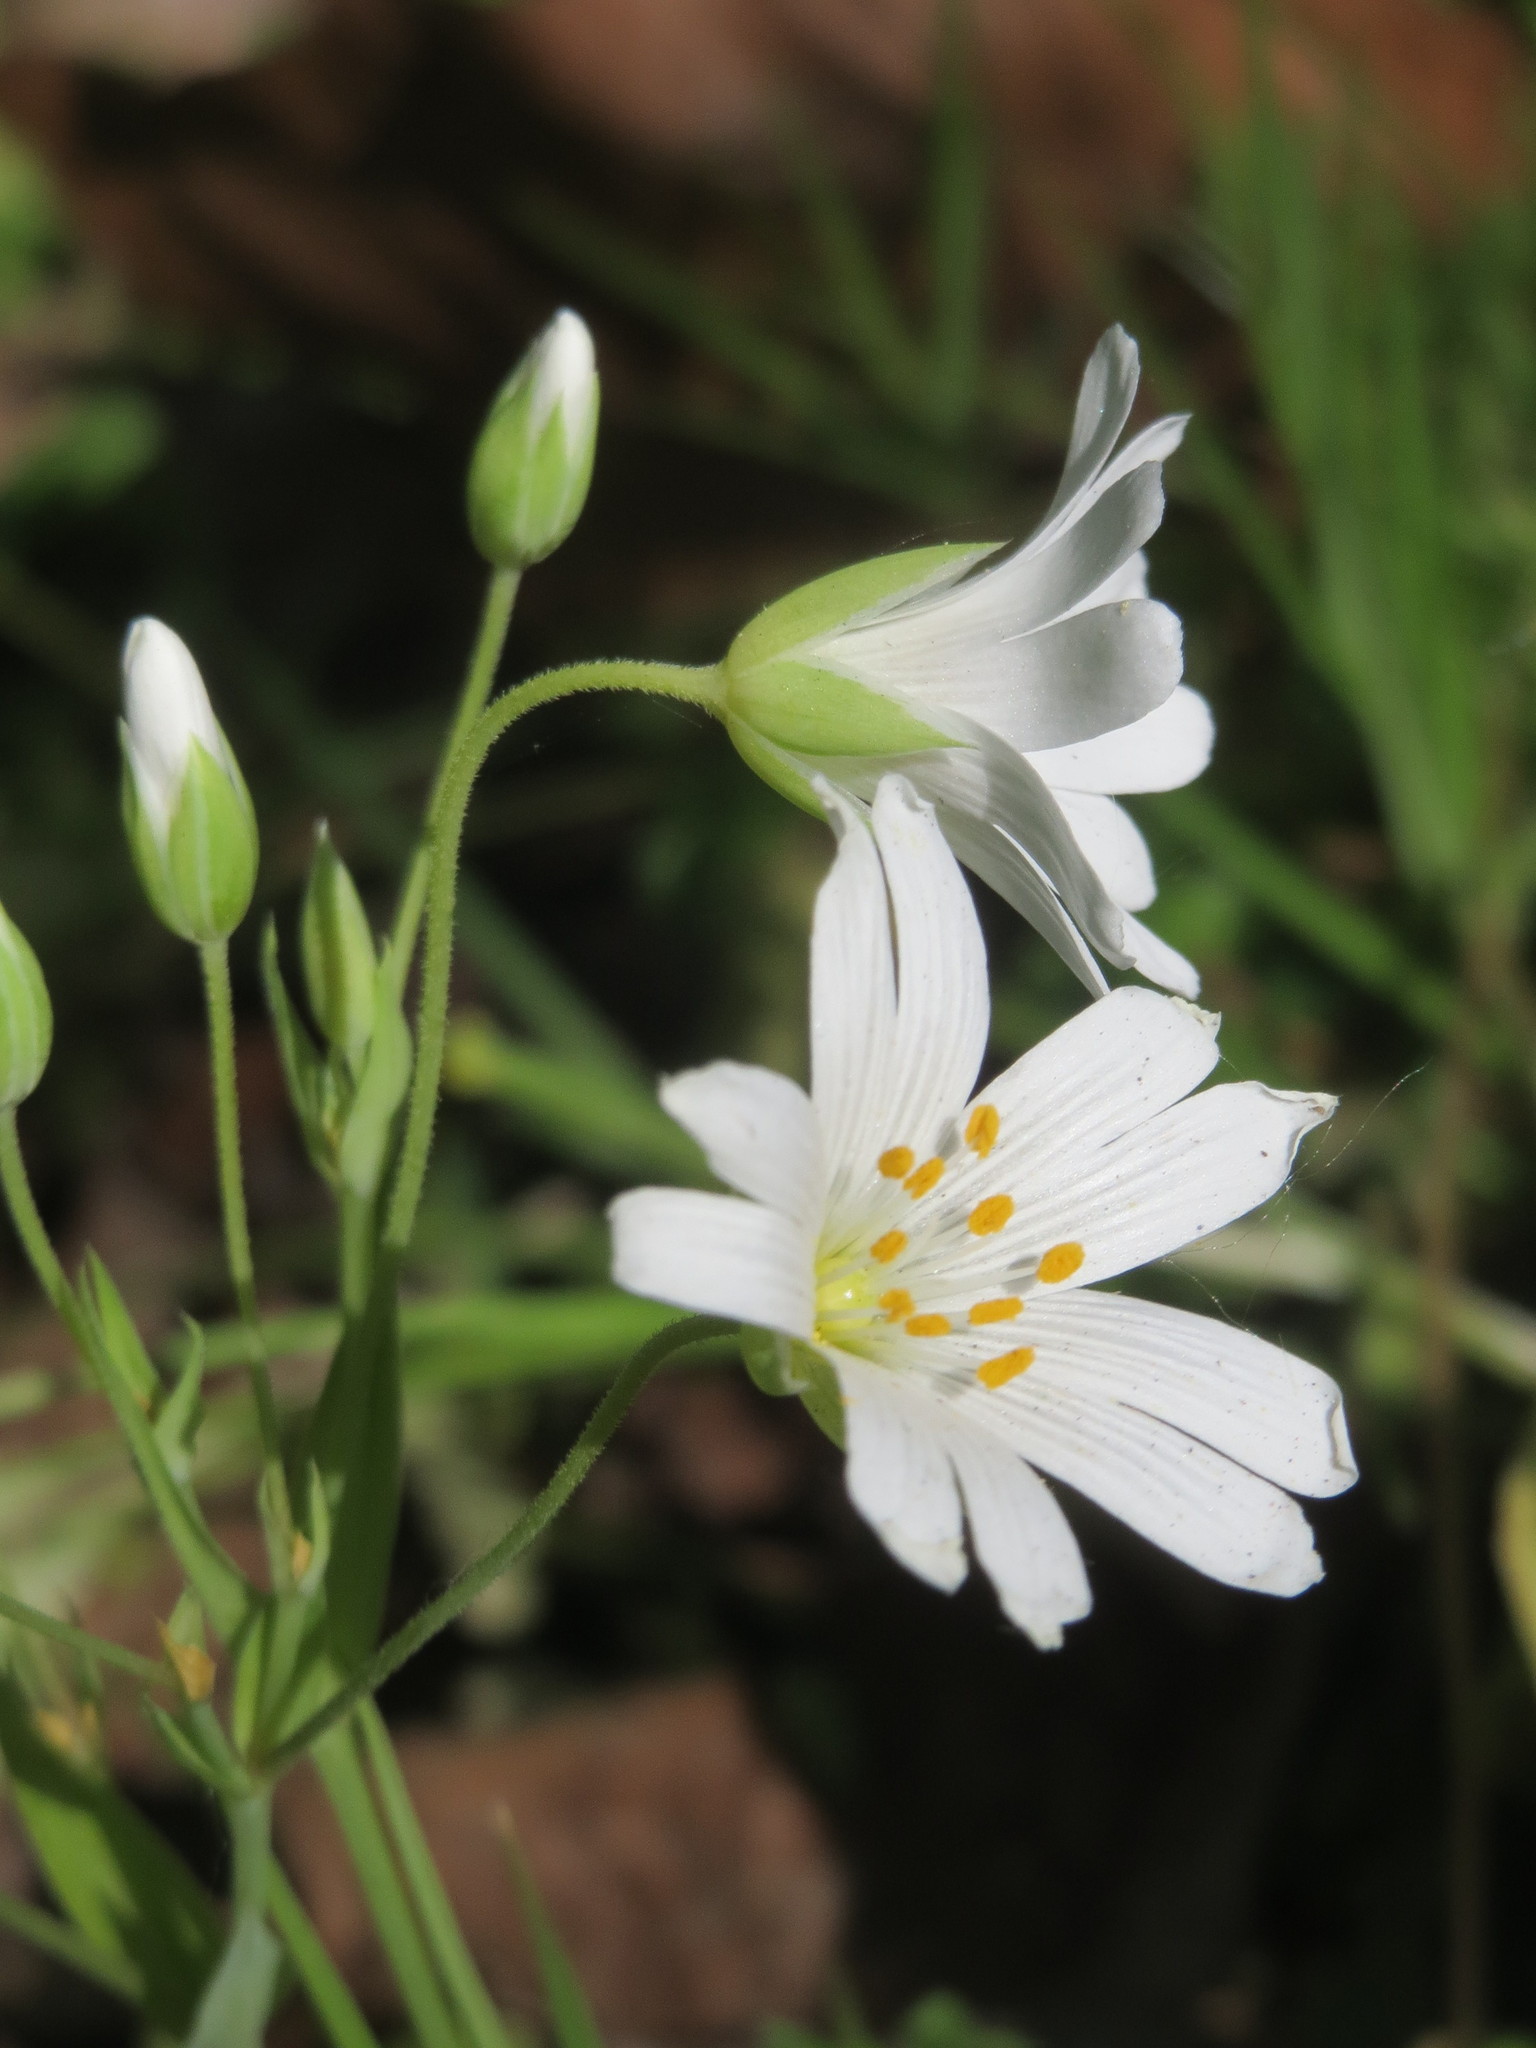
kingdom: Plantae
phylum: Tracheophyta
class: Magnoliopsida
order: Caryophyllales
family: Caryophyllaceae
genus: Rabelera
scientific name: Rabelera holostea
